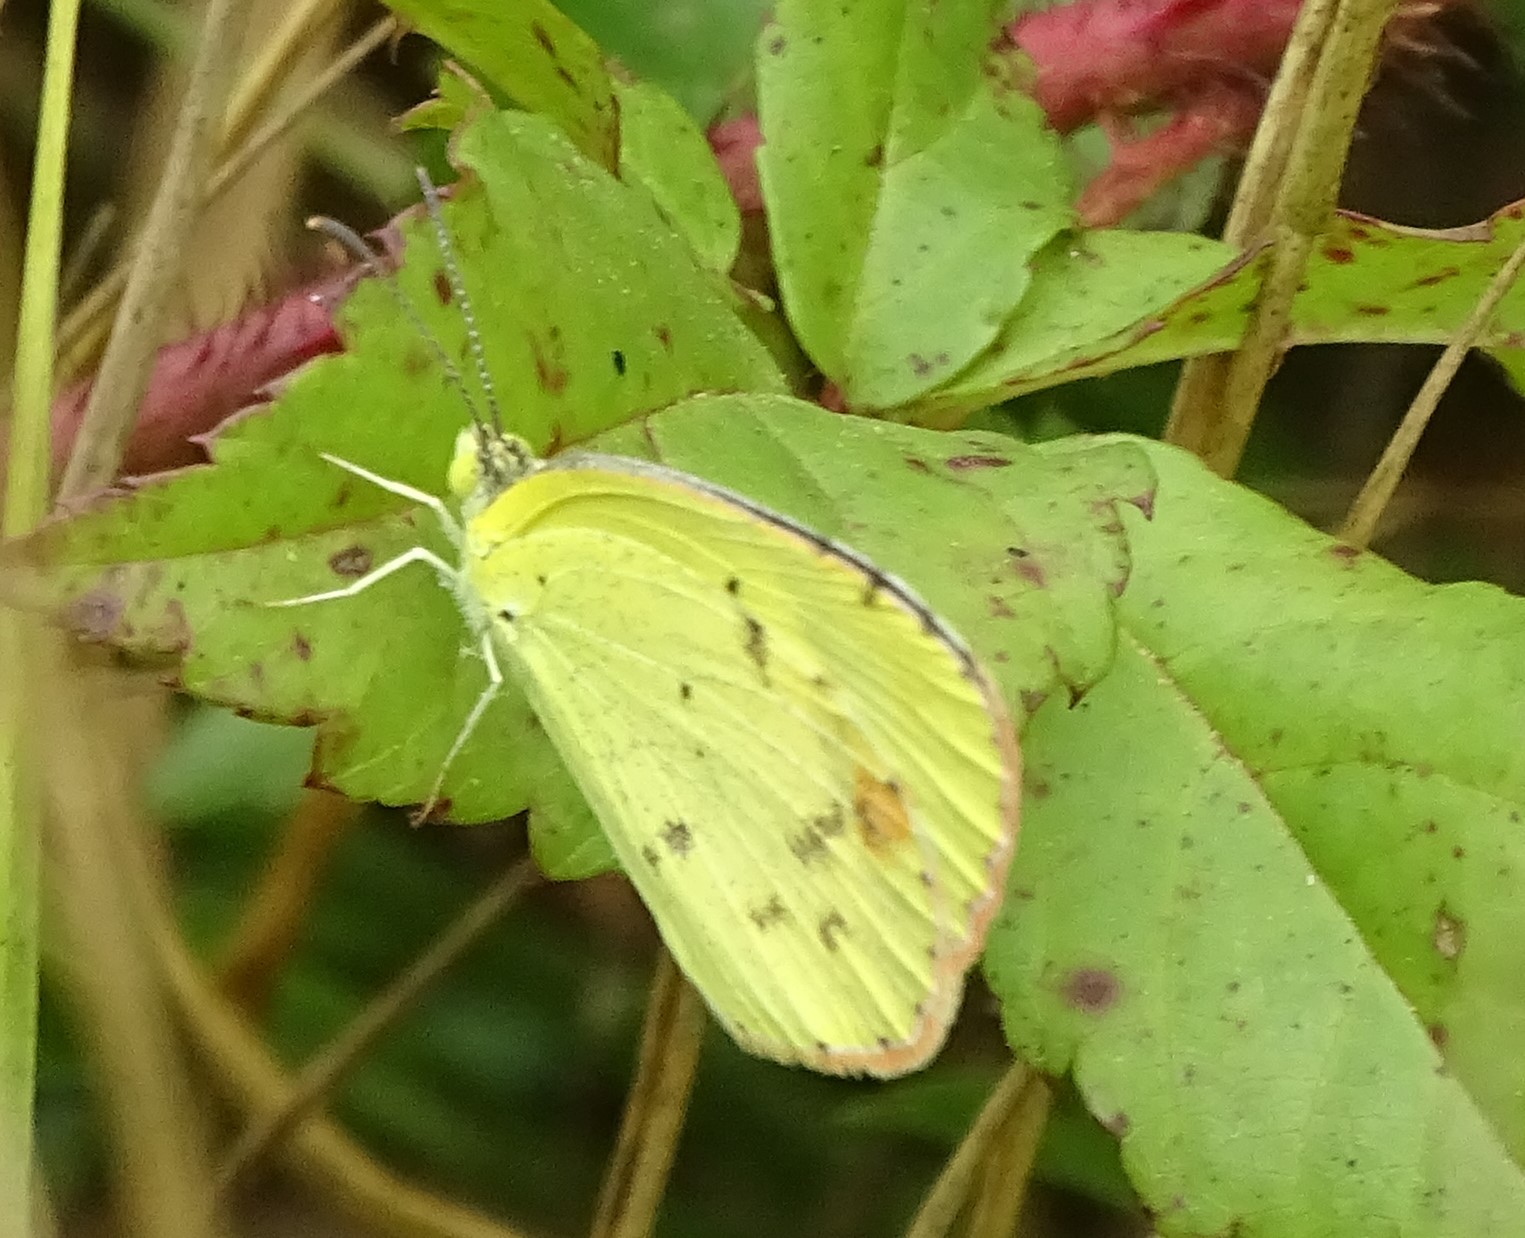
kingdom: Animalia
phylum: Arthropoda
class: Insecta
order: Lepidoptera
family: Pieridae
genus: Pyrisitia
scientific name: Pyrisitia lisa
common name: Little yellow
